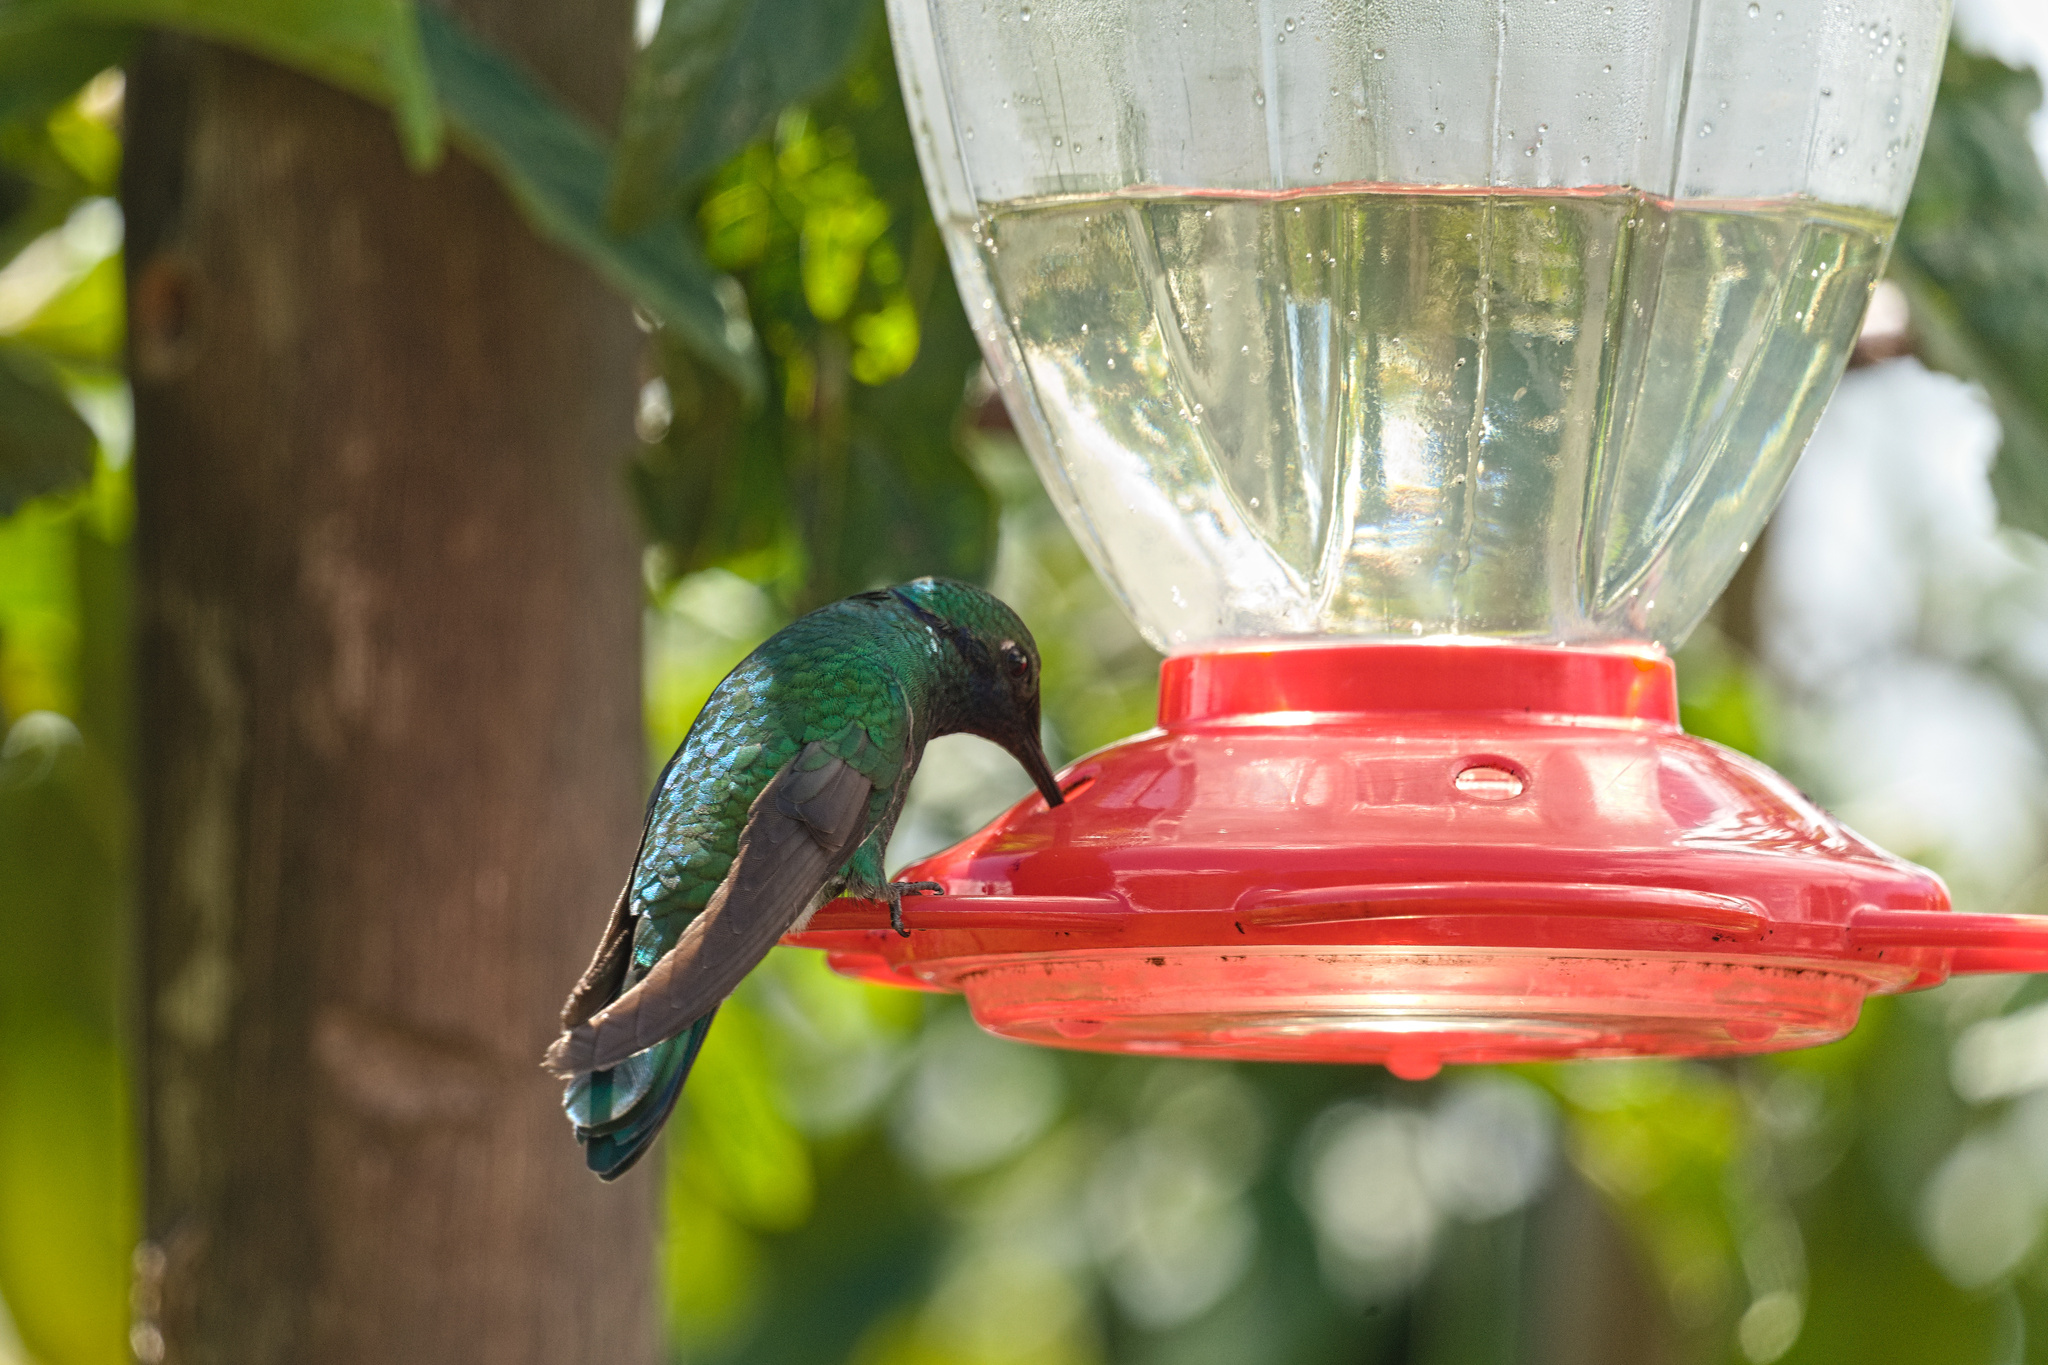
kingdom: Animalia
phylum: Chordata
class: Aves
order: Apodiformes
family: Trochilidae
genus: Colibri
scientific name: Colibri coruscans
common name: Sparkling violetear
